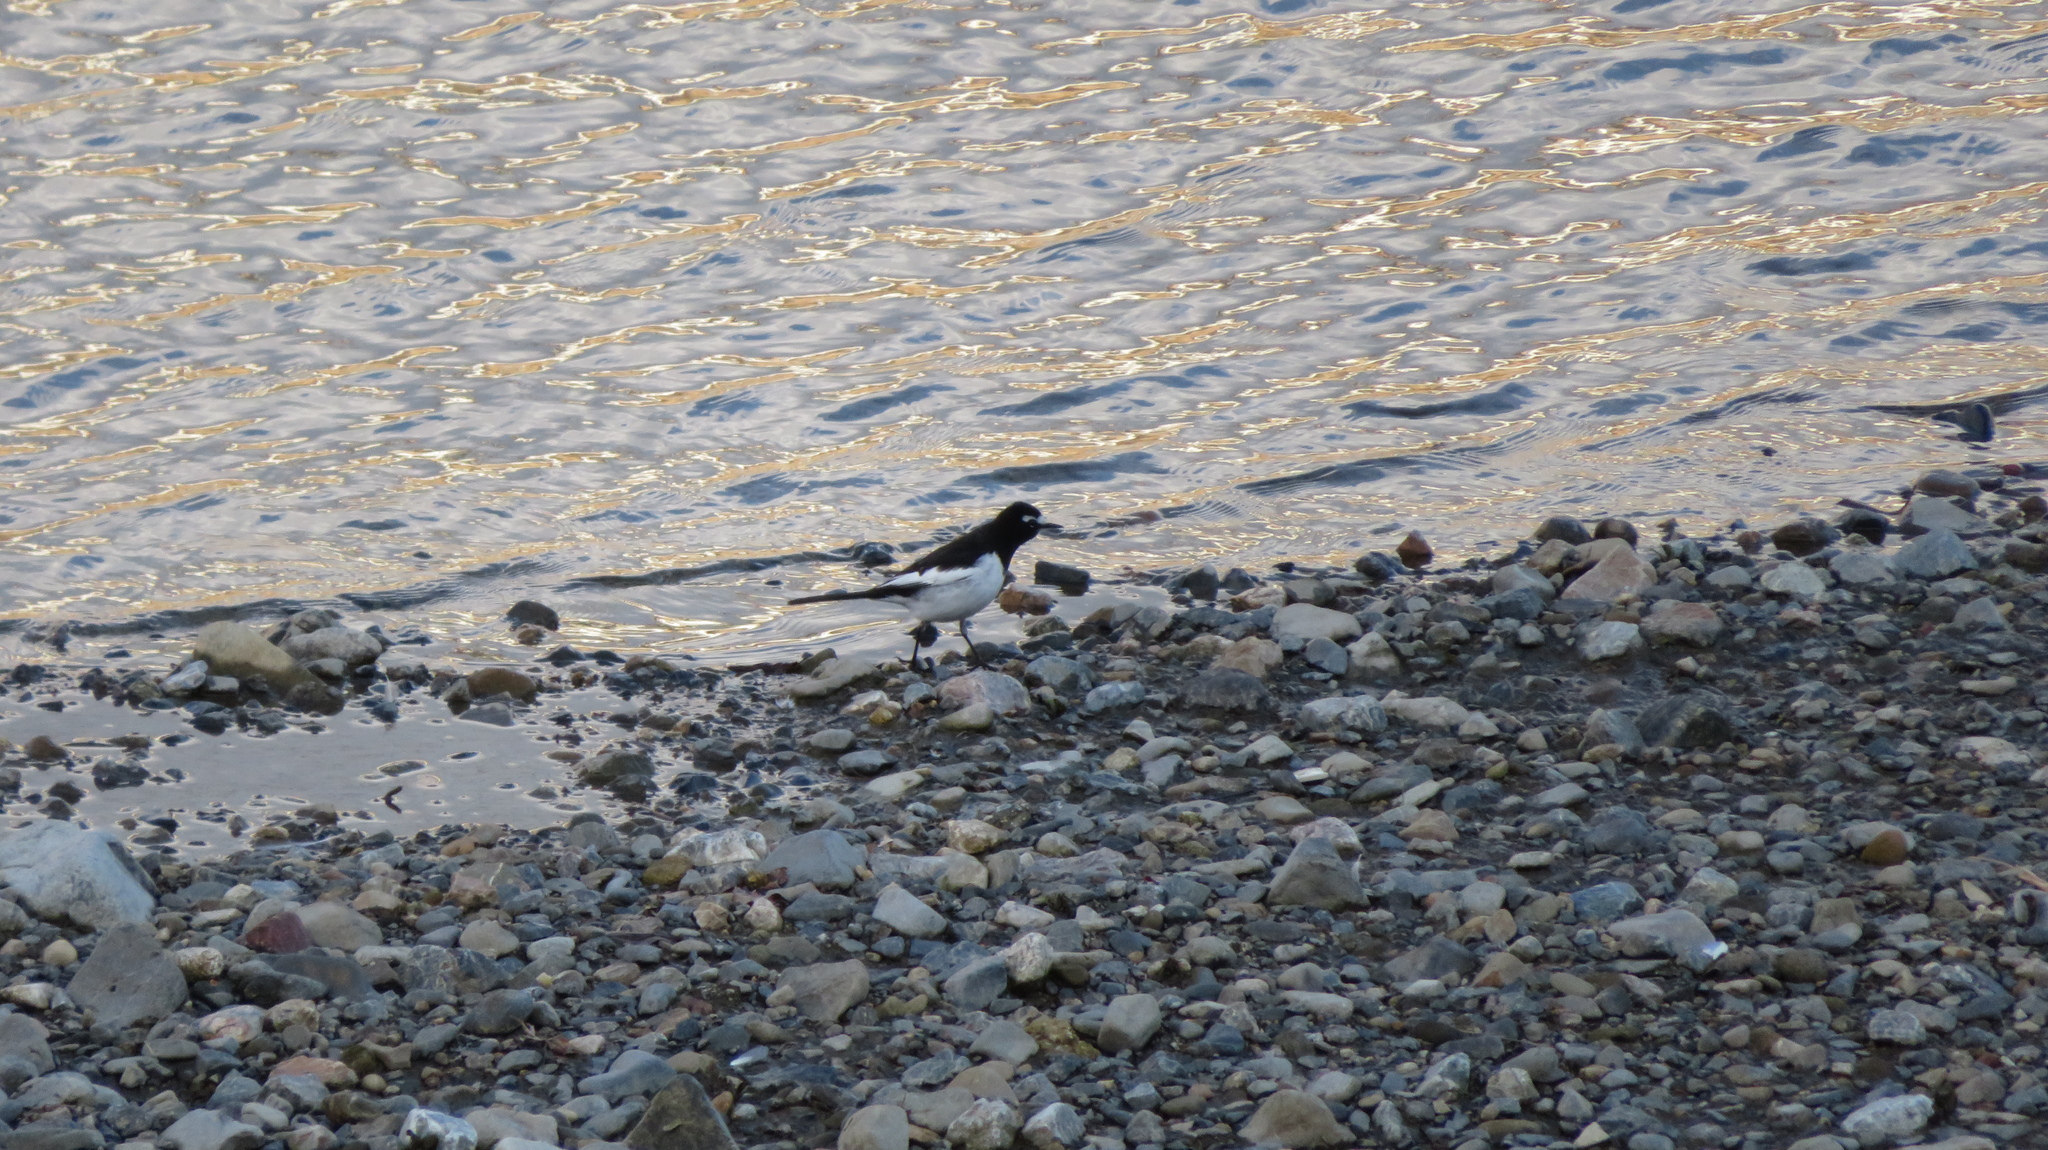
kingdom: Animalia
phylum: Chordata
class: Aves
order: Passeriformes
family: Motacillidae
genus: Motacilla
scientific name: Motacilla grandis
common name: Japanese wagtail
